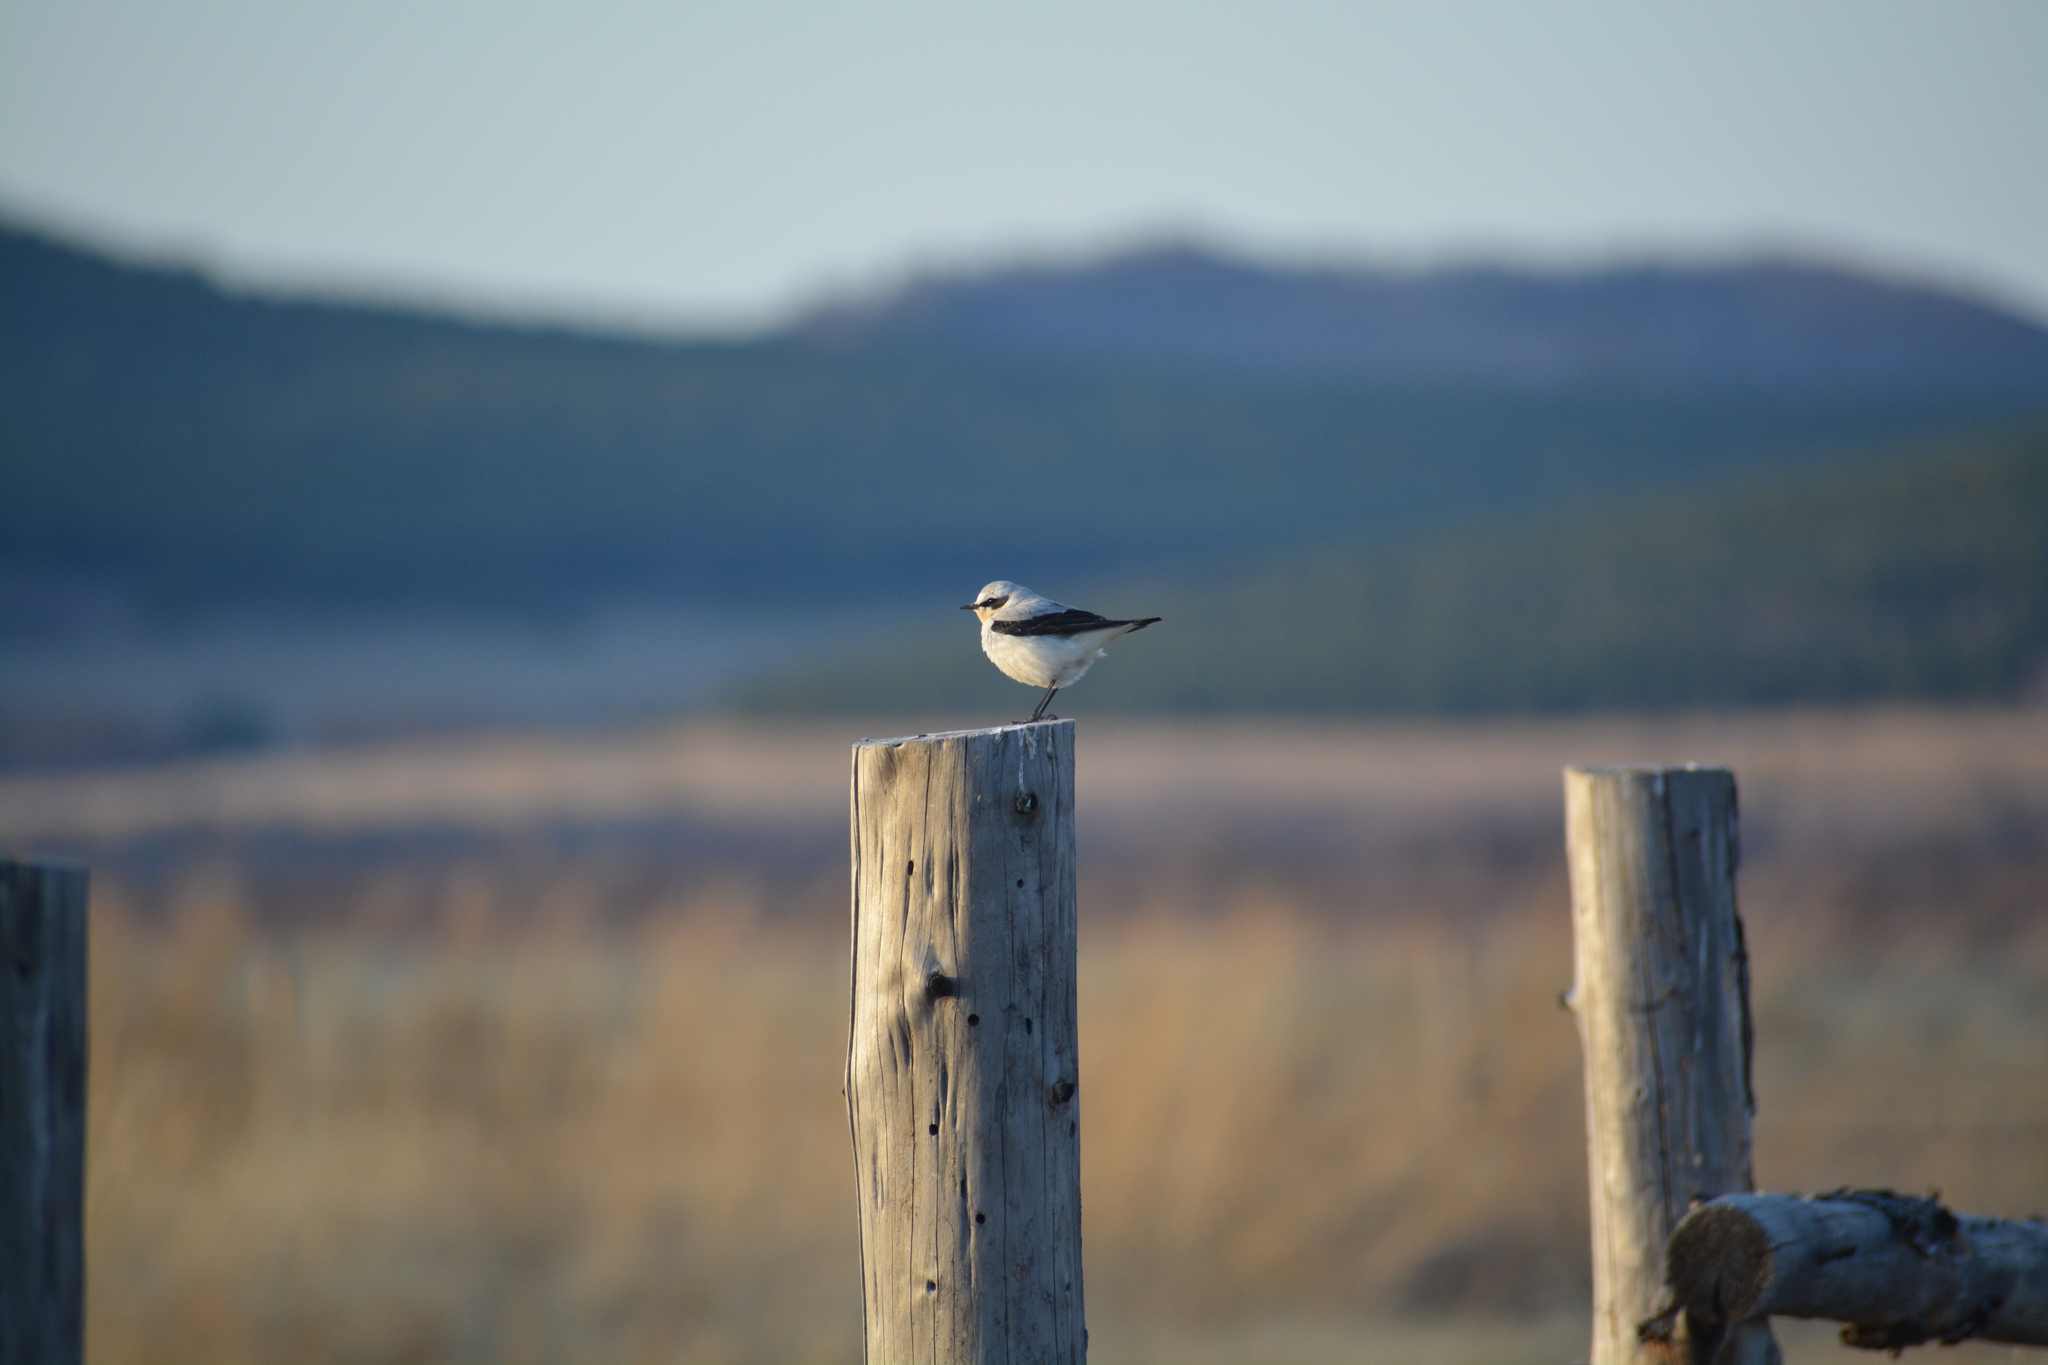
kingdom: Animalia
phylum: Chordata
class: Aves
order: Passeriformes
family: Muscicapidae
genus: Oenanthe
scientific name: Oenanthe oenanthe
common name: Northern wheatear
